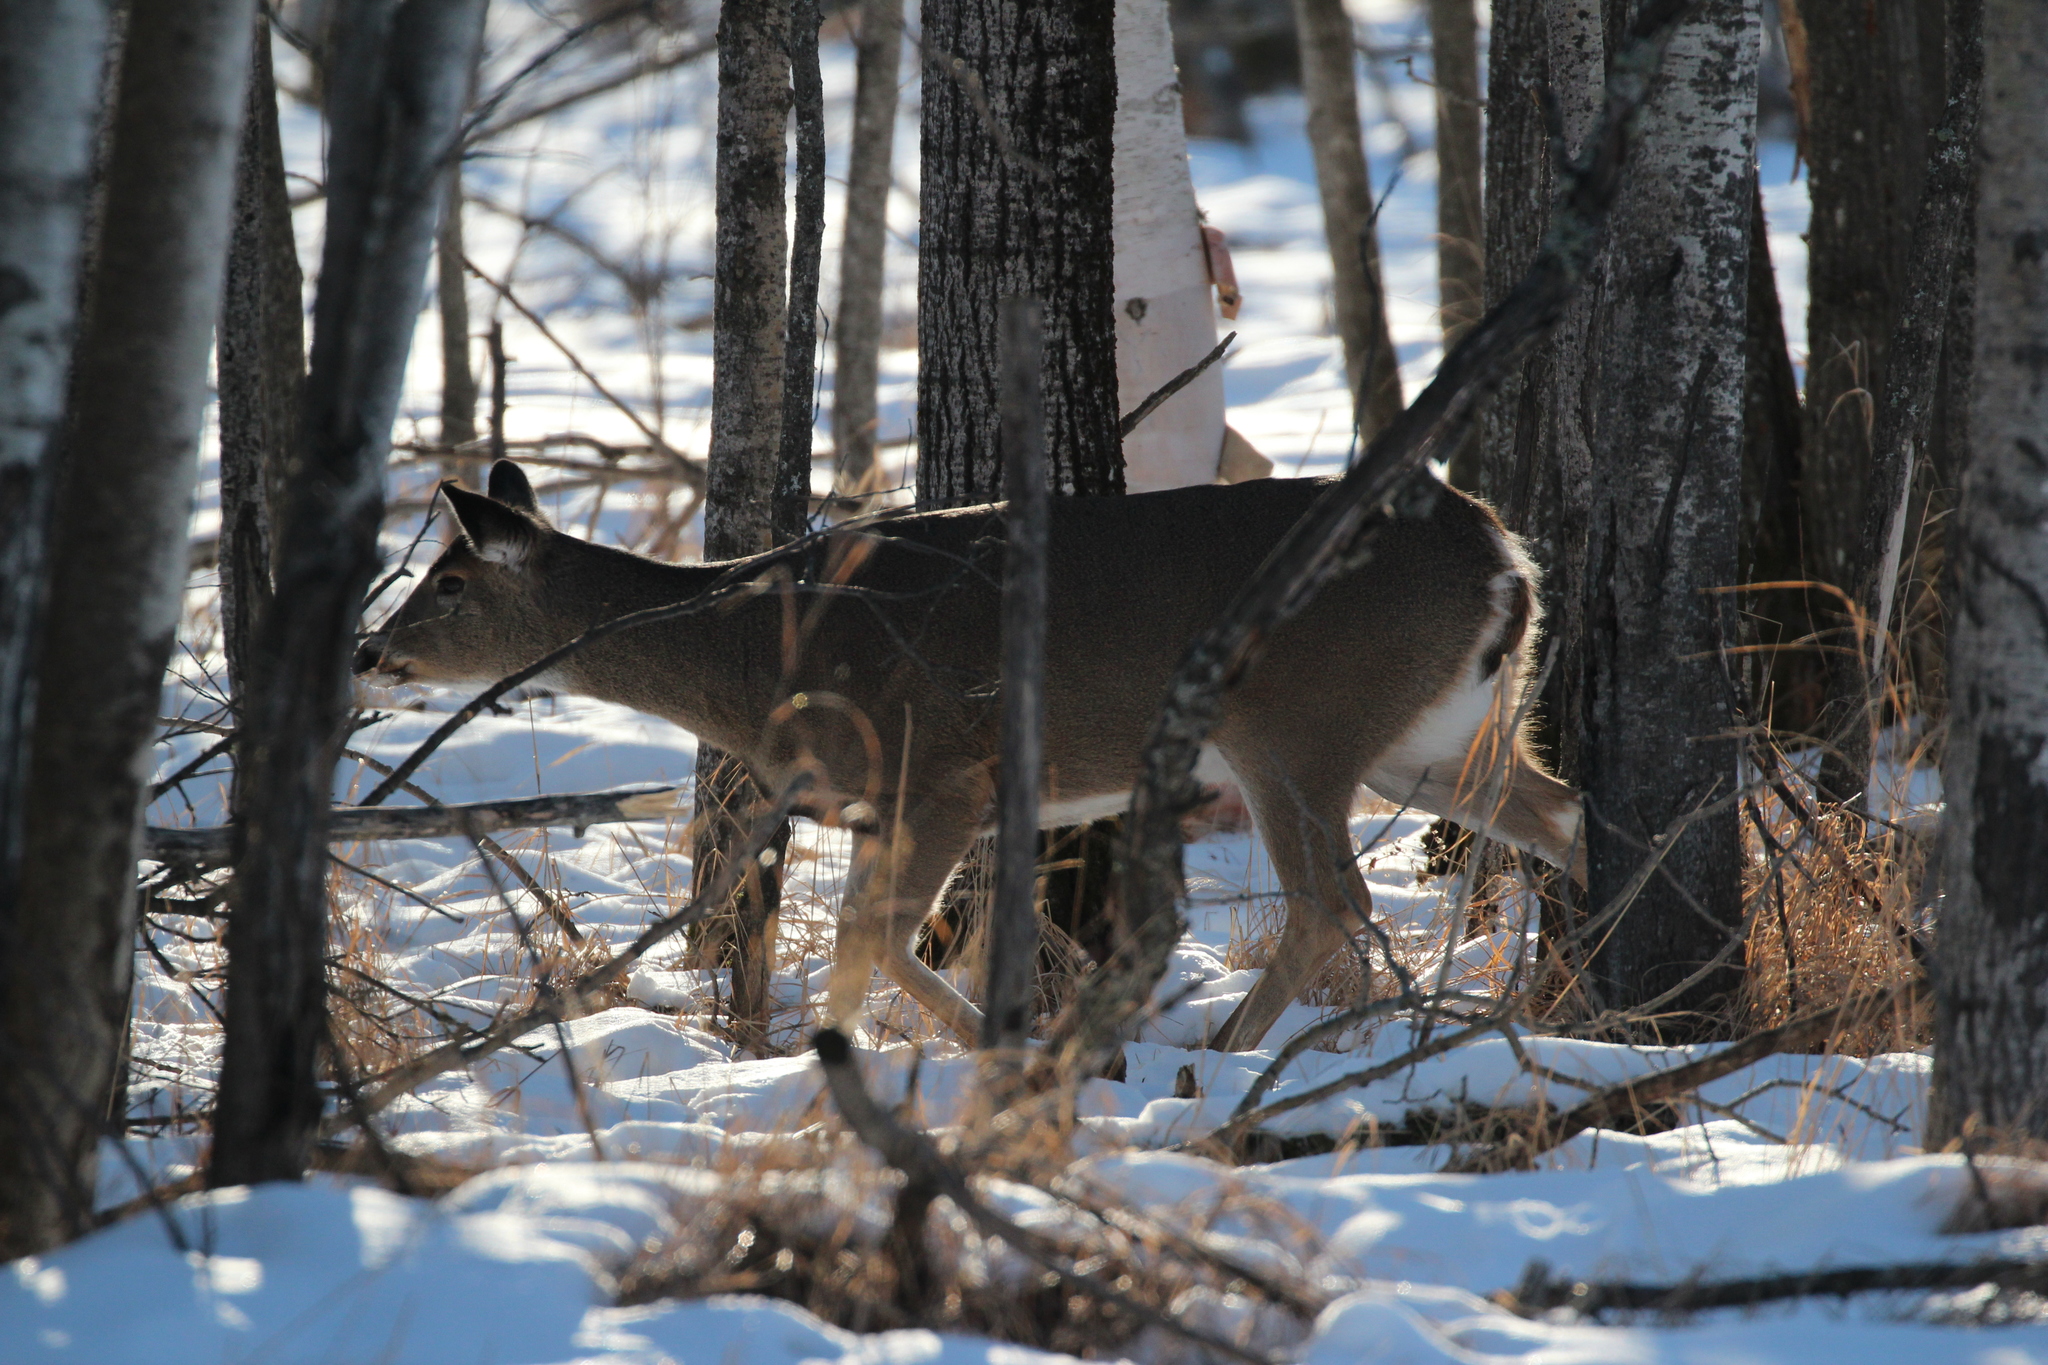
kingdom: Animalia
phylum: Chordata
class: Mammalia
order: Artiodactyla
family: Cervidae
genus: Odocoileus
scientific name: Odocoileus virginianus
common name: White-tailed deer
